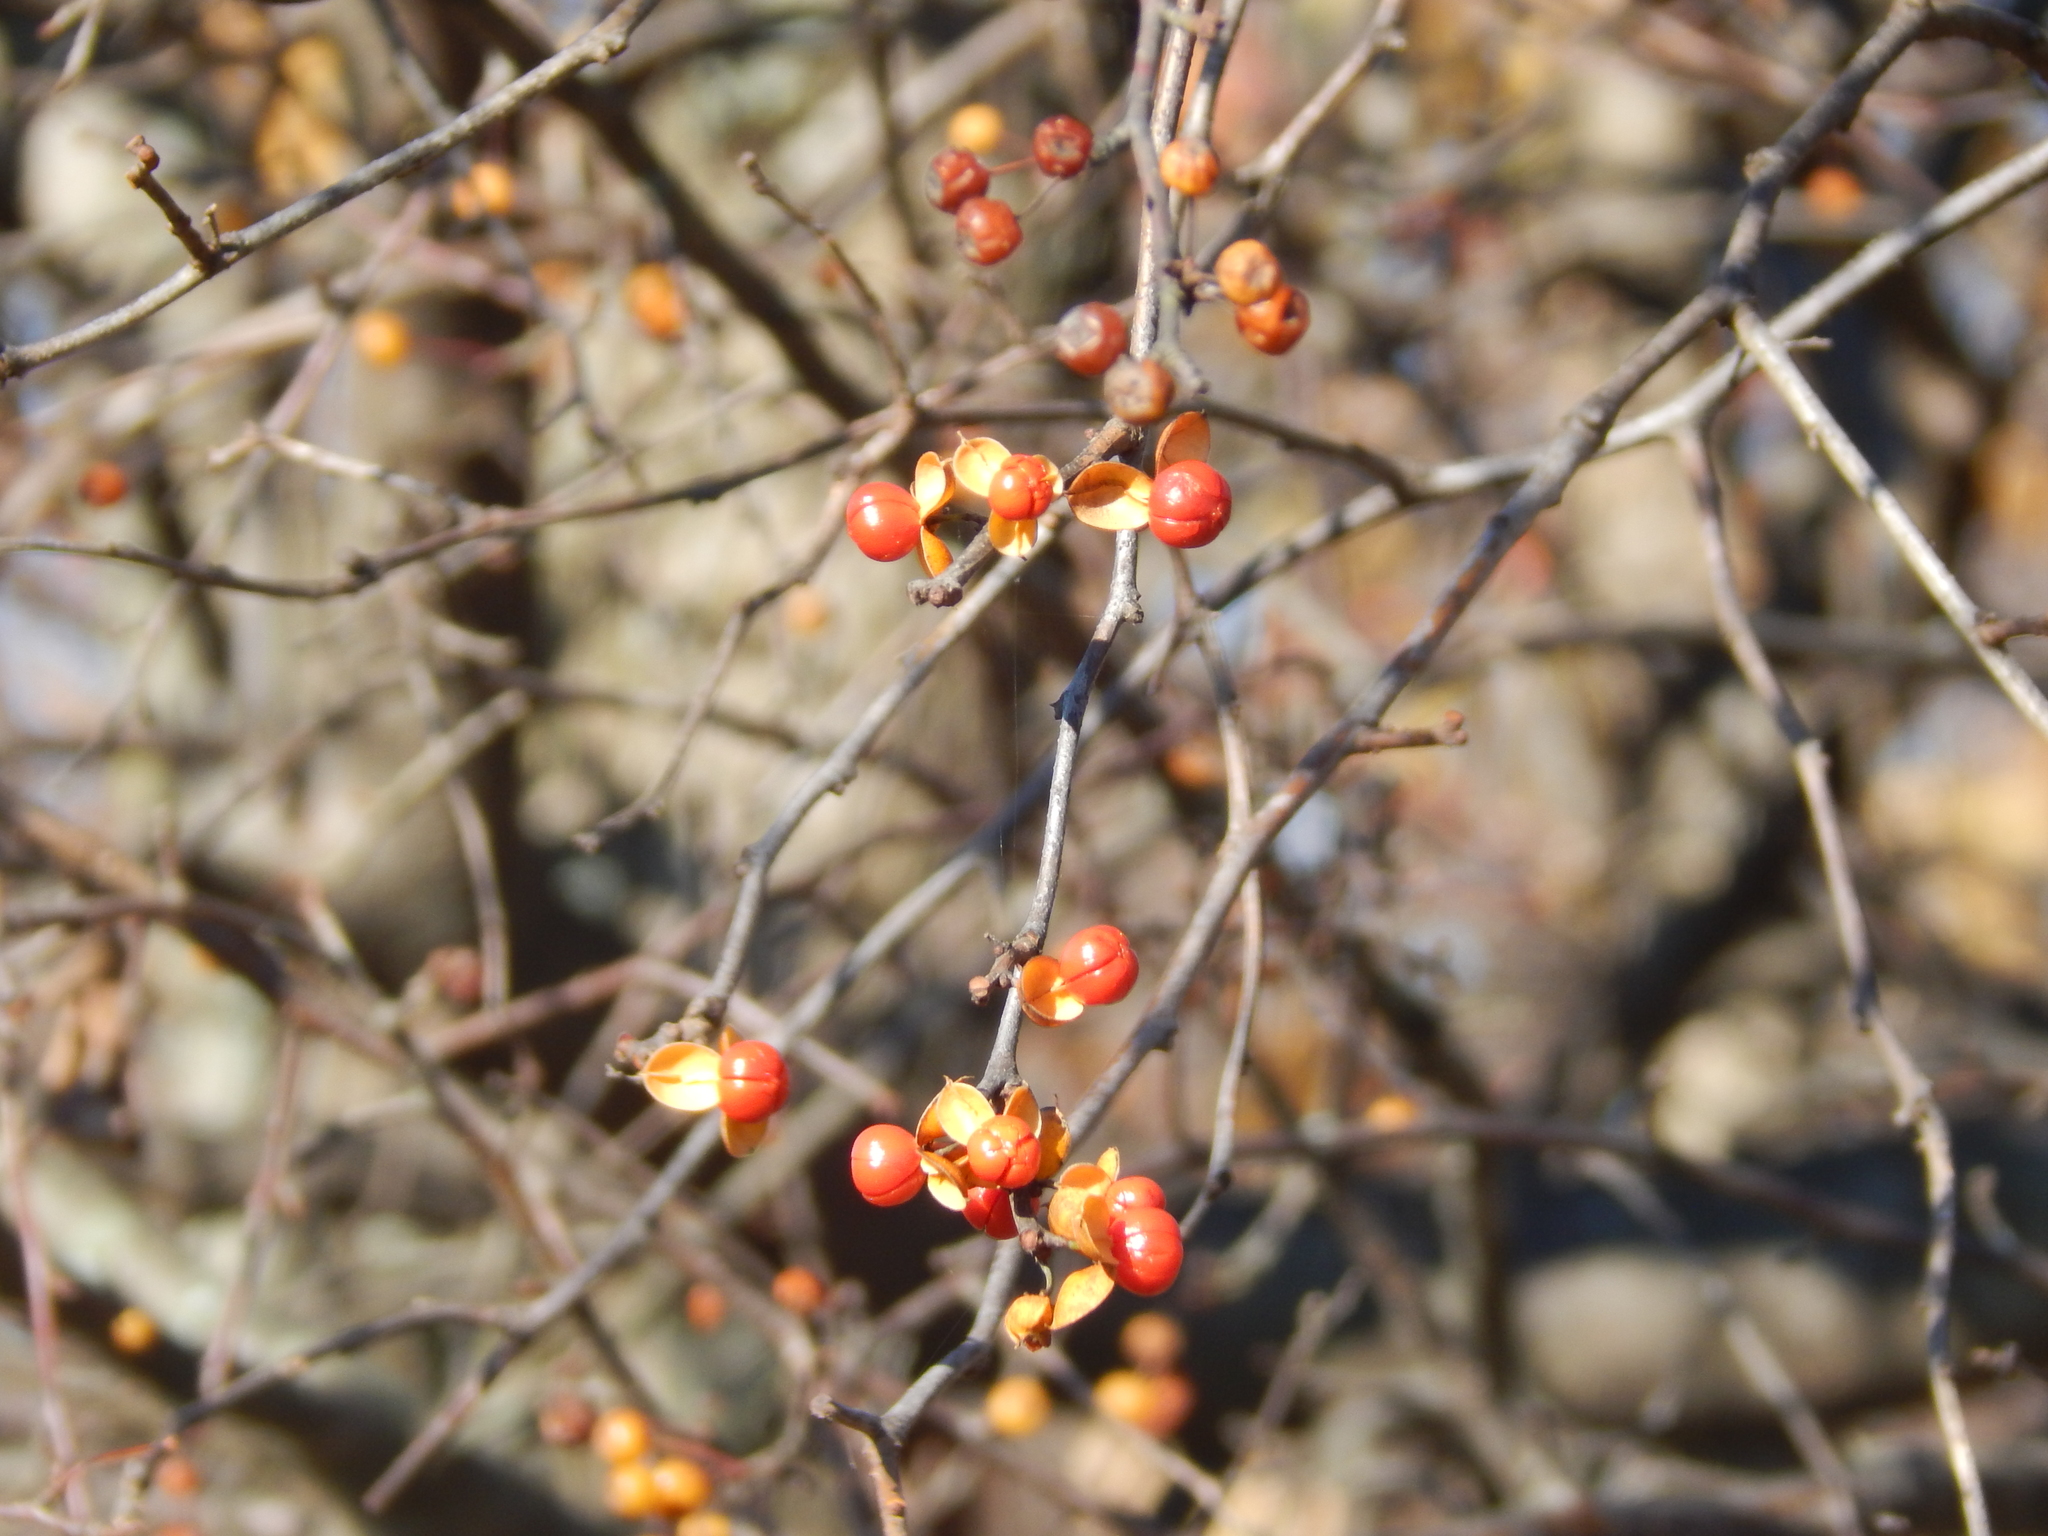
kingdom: Plantae
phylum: Tracheophyta
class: Magnoliopsida
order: Celastrales
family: Celastraceae
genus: Celastrus
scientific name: Celastrus orbiculatus
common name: Oriental bittersweet
